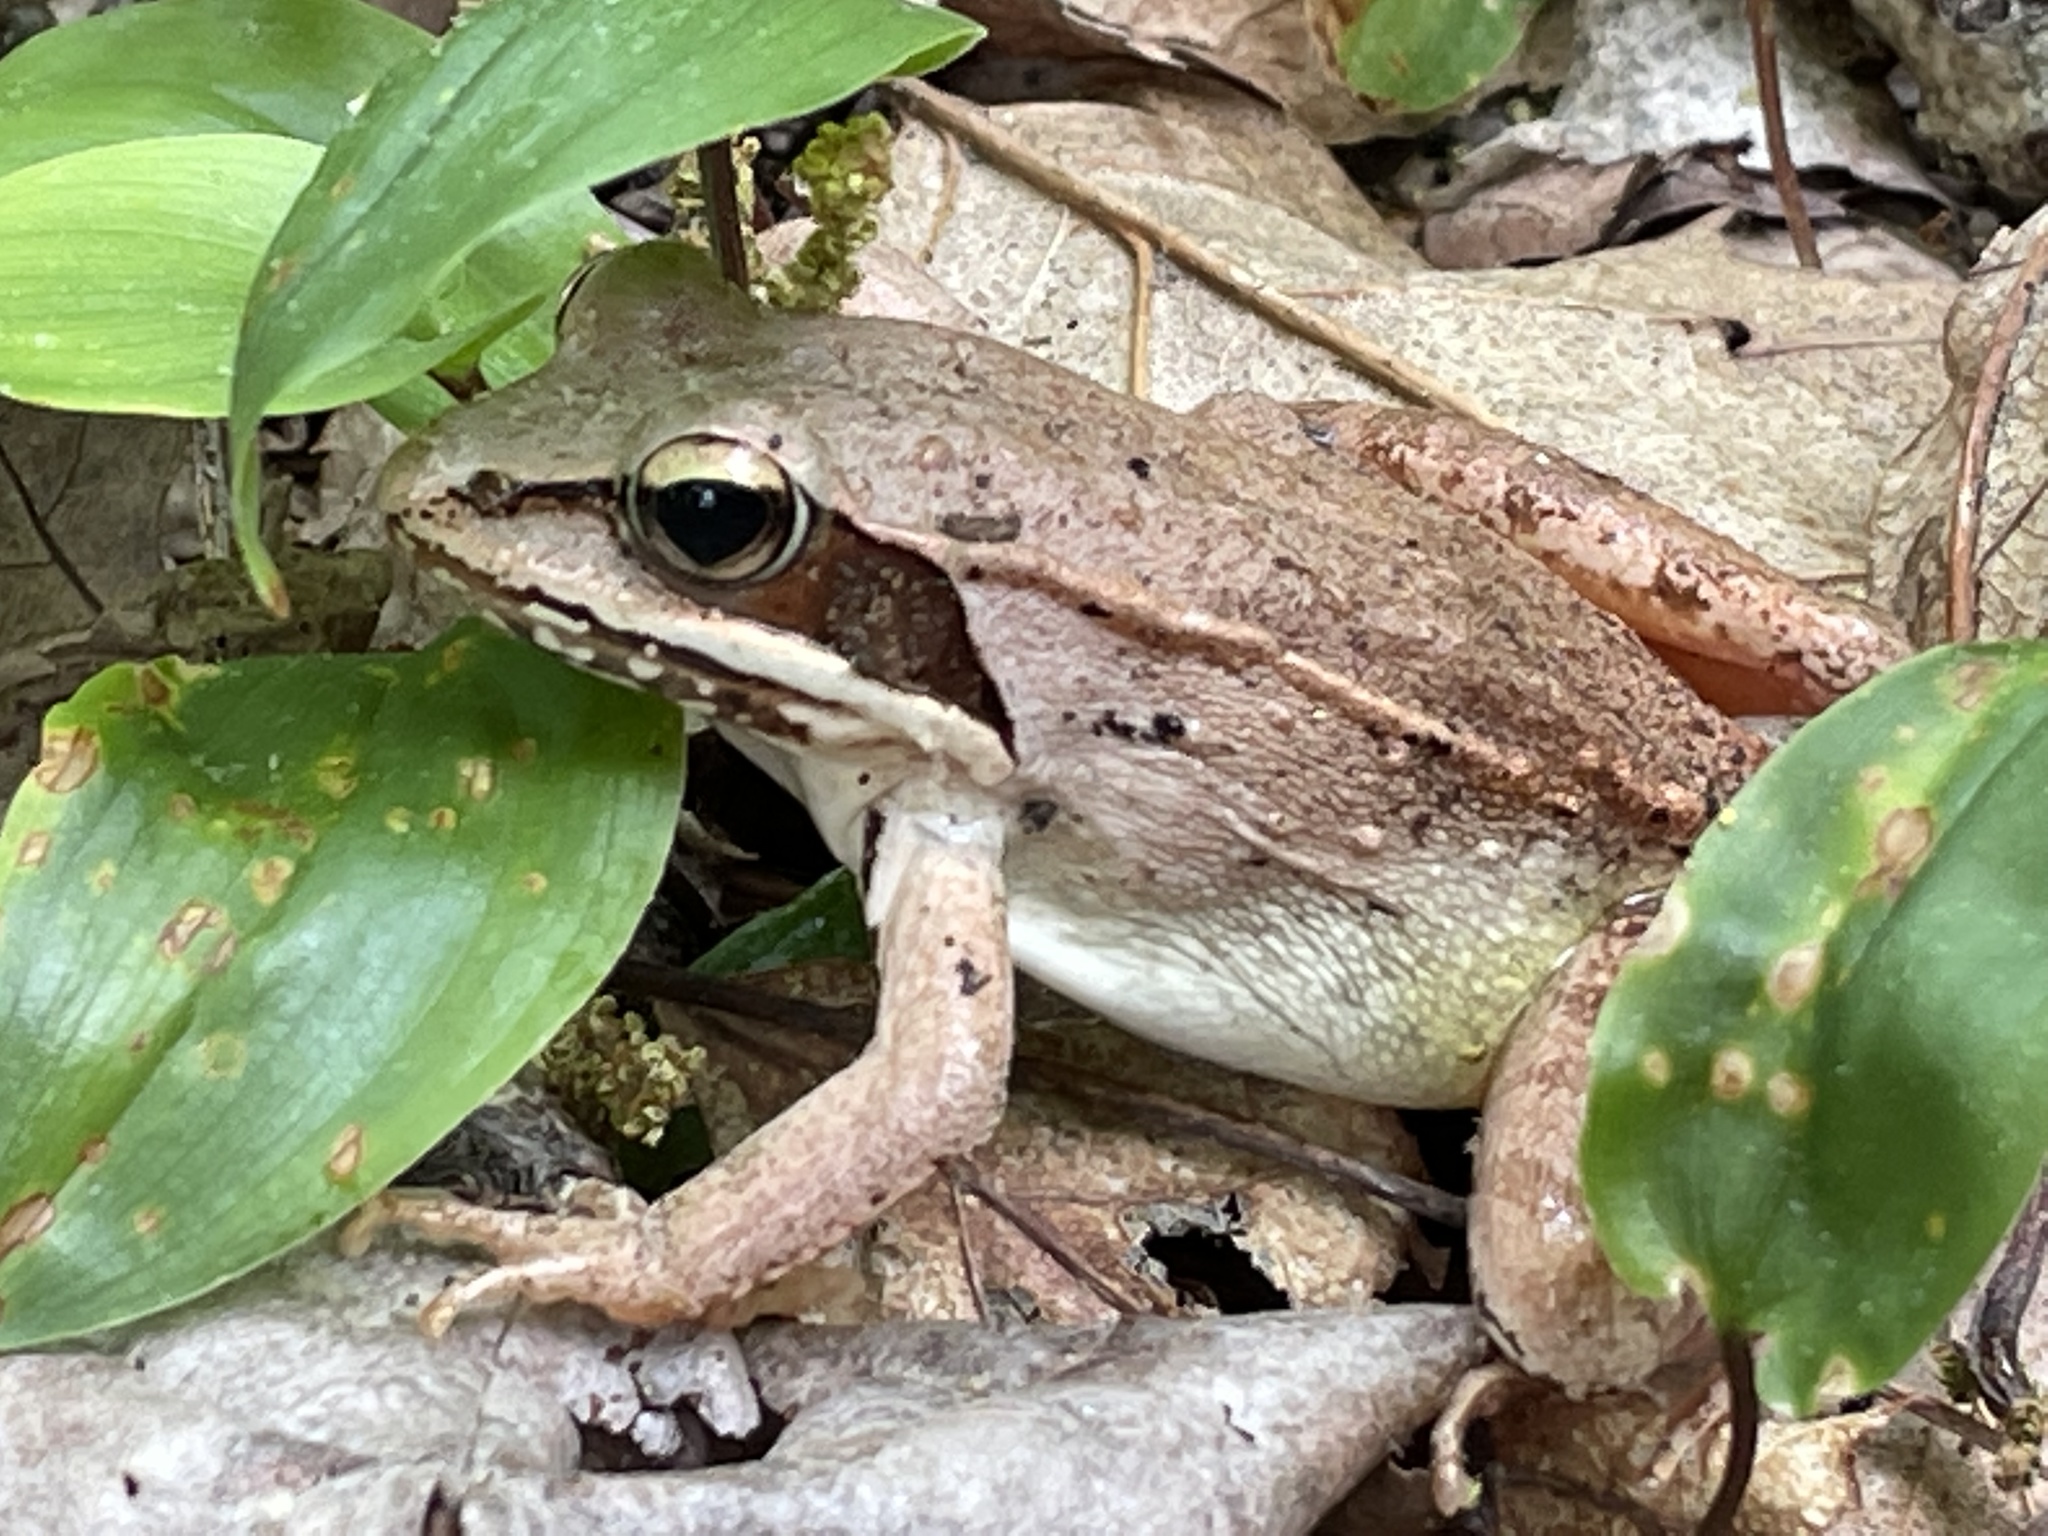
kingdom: Animalia
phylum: Chordata
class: Amphibia
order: Anura
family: Ranidae
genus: Lithobates
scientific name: Lithobates sylvaticus
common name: Wood frog
